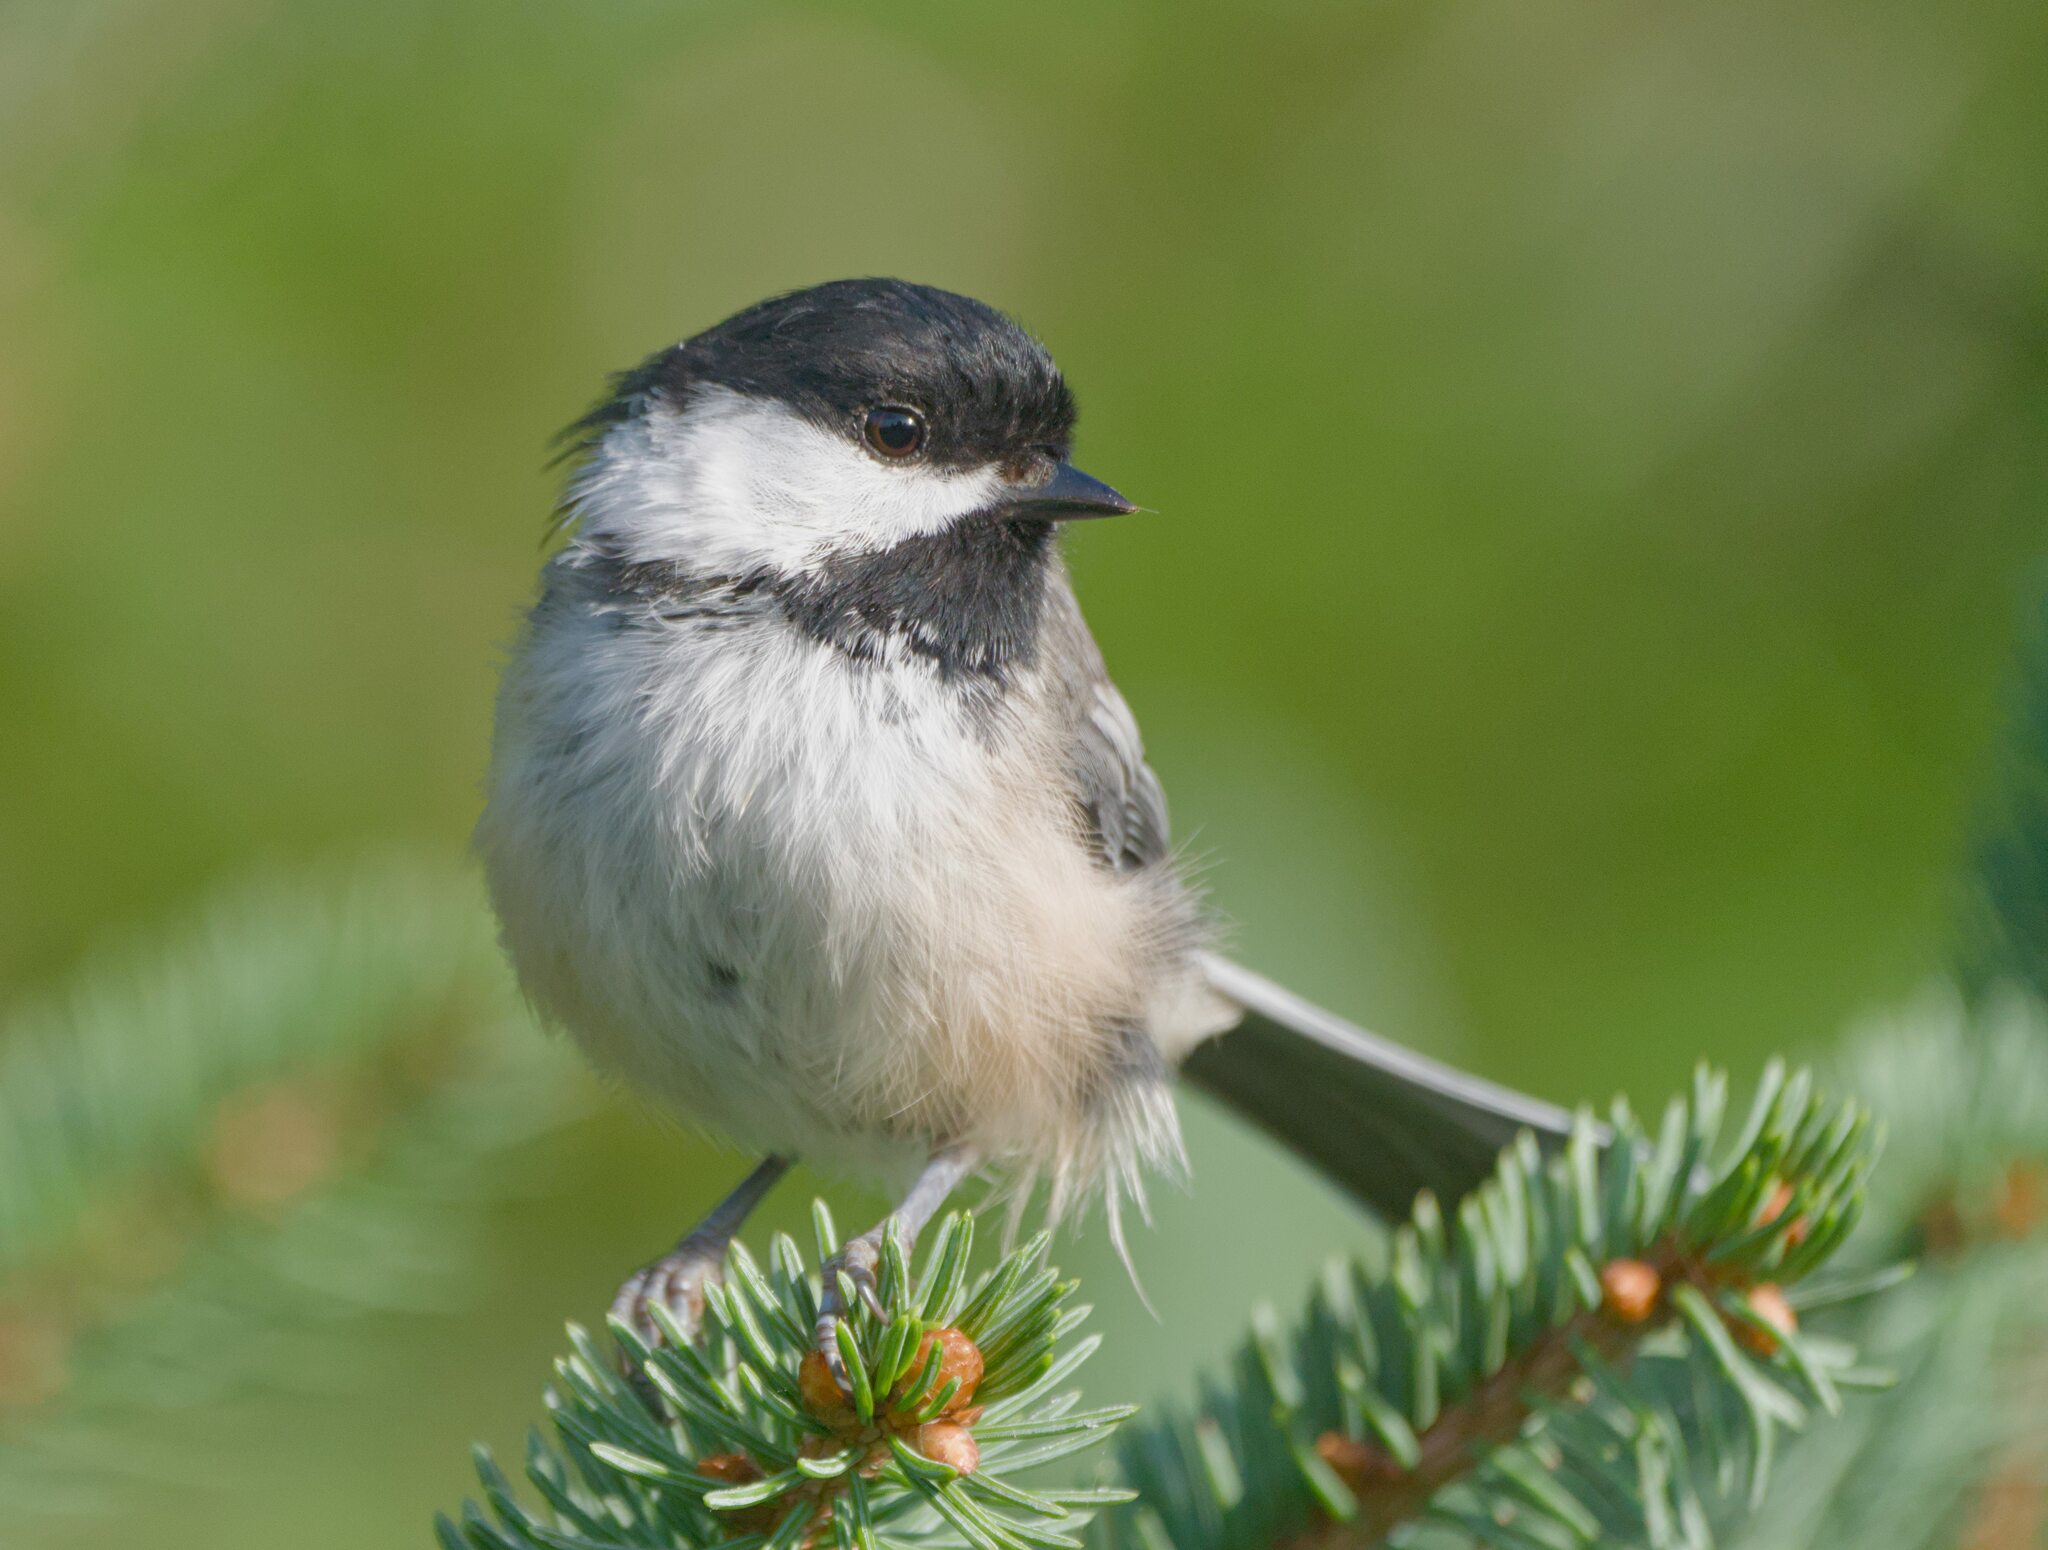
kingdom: Animalia
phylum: Chordata
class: Aves
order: Passeriformes
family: Paridae
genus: Poecile
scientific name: Poecile atricapillus
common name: Black-capped chickadee
